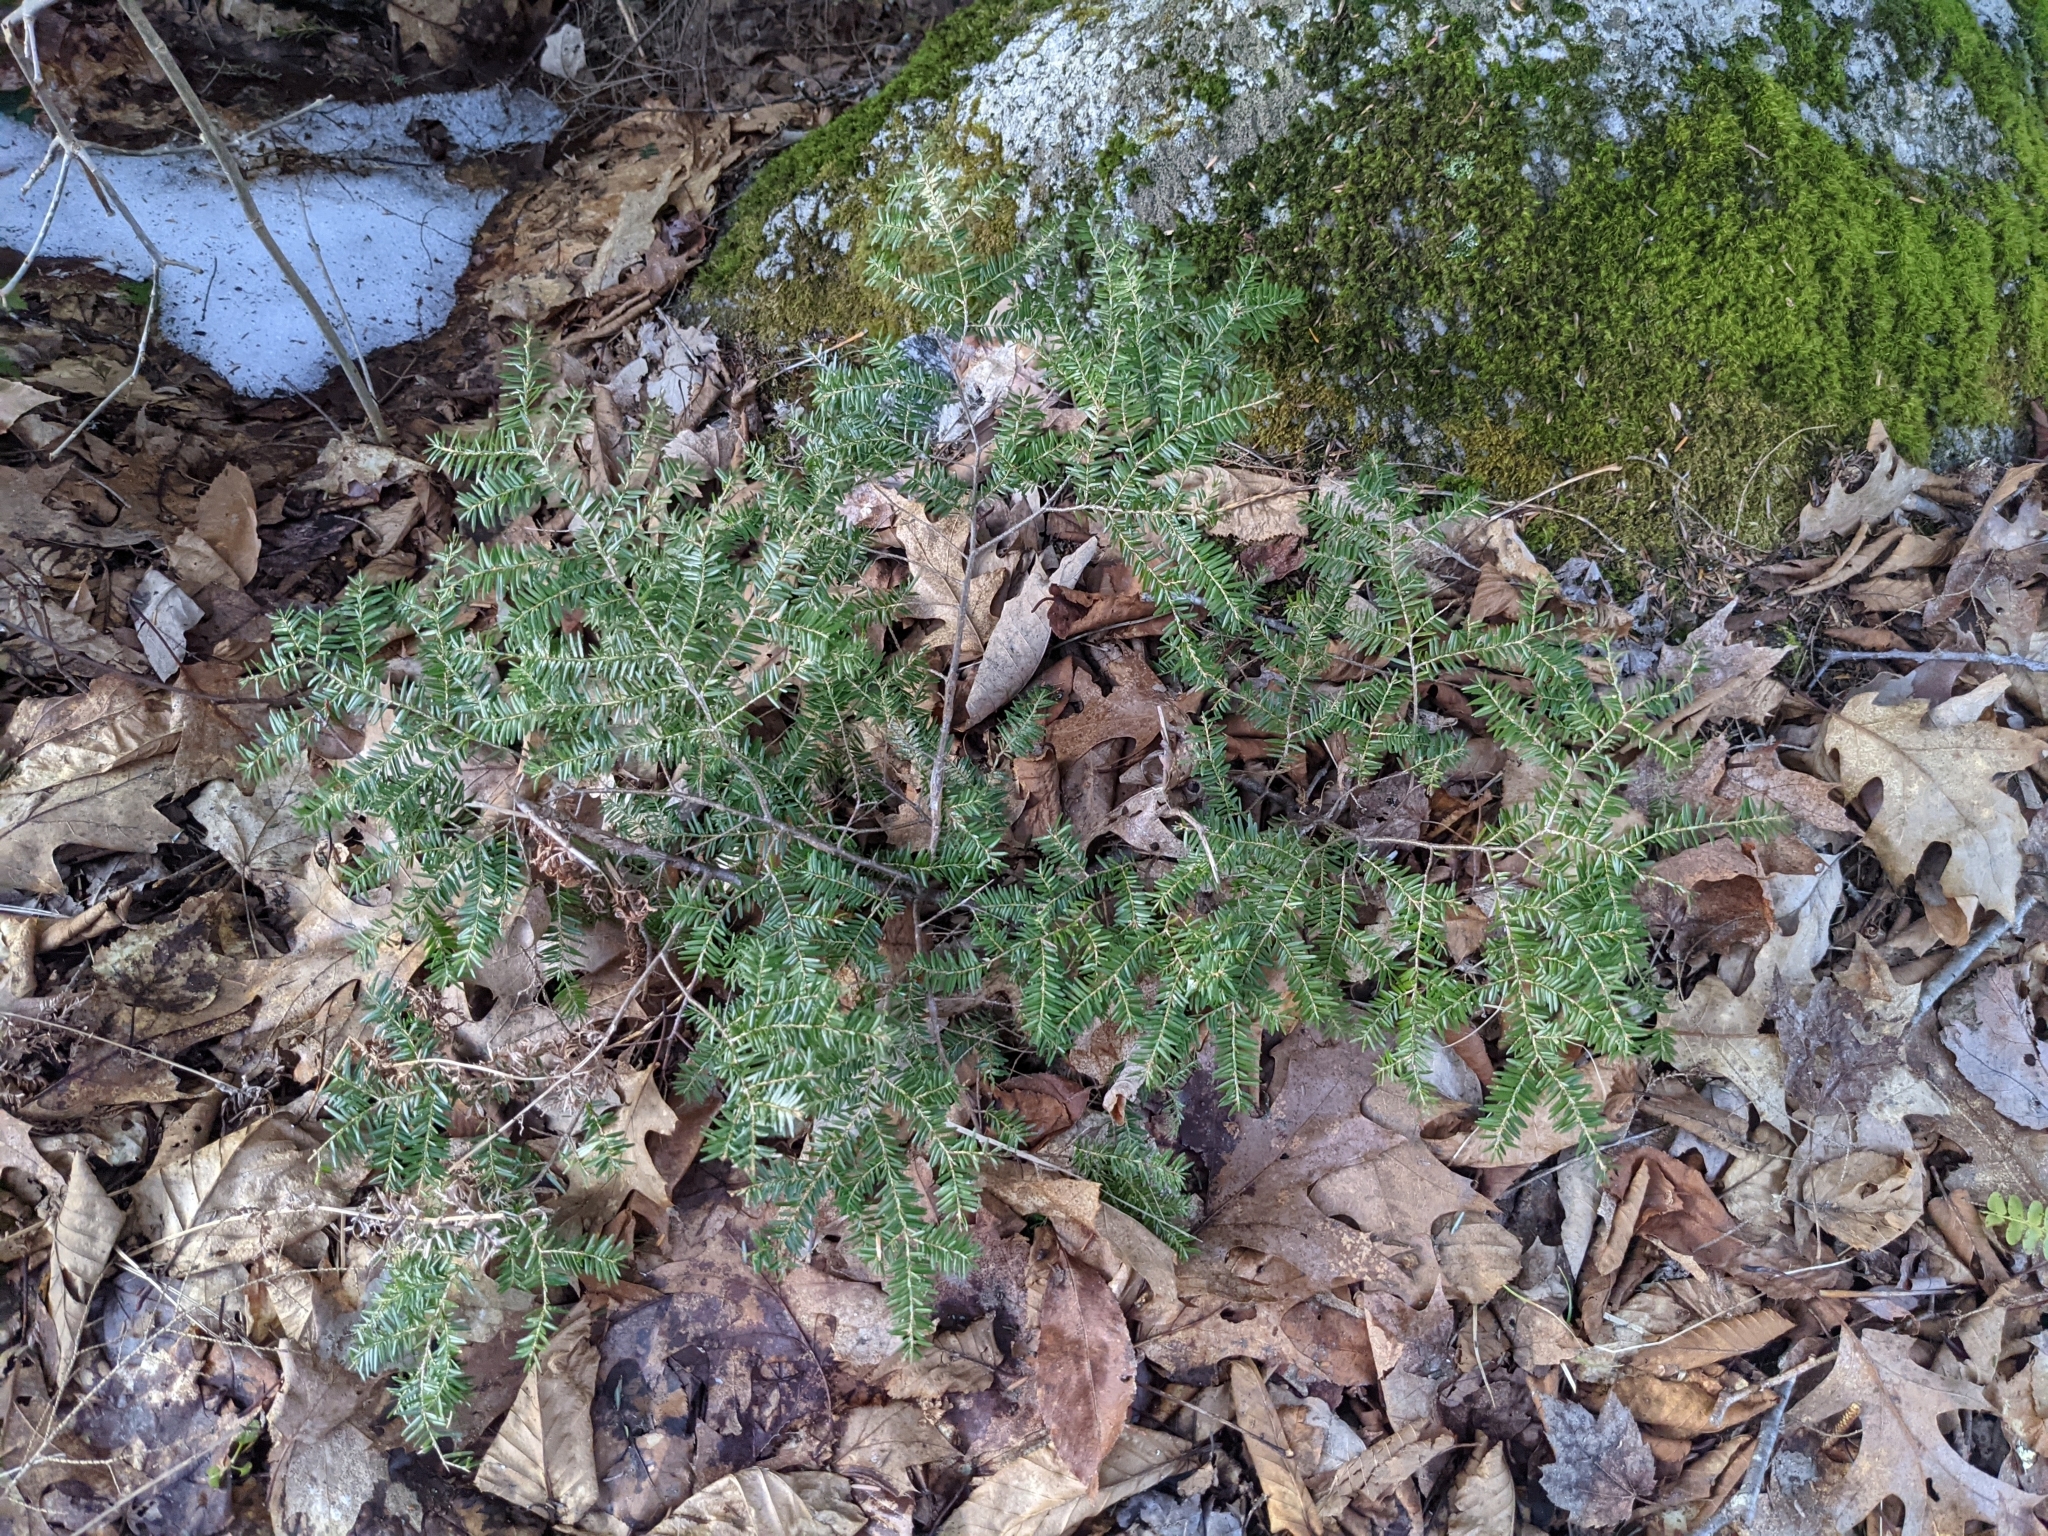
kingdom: Plantae
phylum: Tracheophyta
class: Pinopsida
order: Pinales
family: Pinaceae
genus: Tsuga
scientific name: Tsuga canadensis
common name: Eastern hemlock
